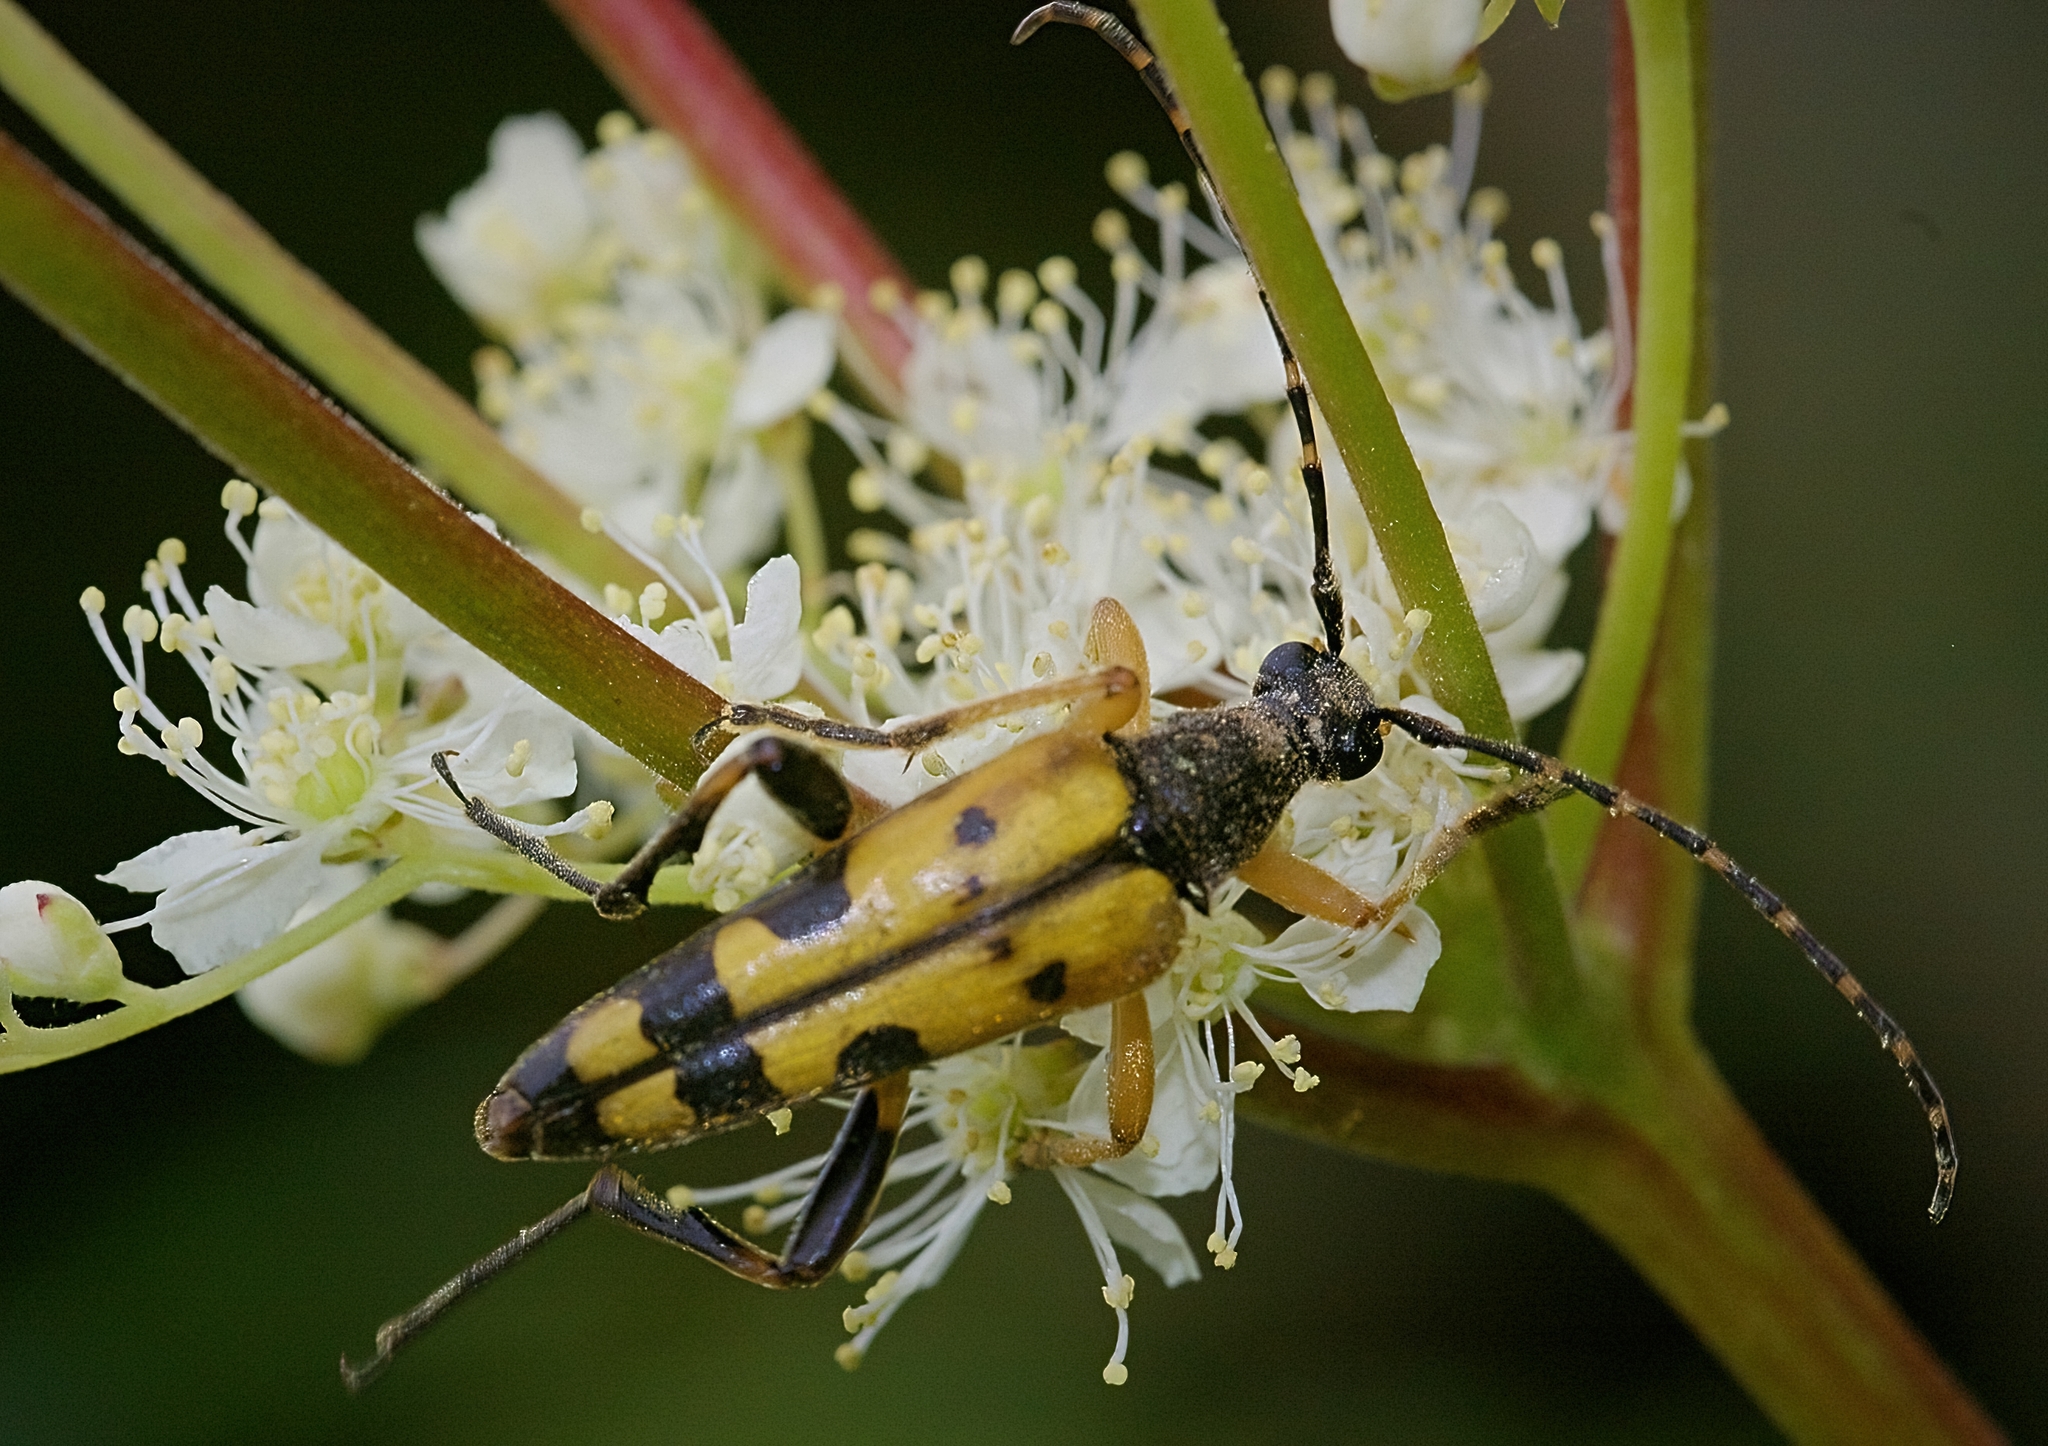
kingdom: Animalia
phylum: Arthropoda
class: Insecta
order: Coleoptera
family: Cerambycidae
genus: Rutpela
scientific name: Rutpela maculata
